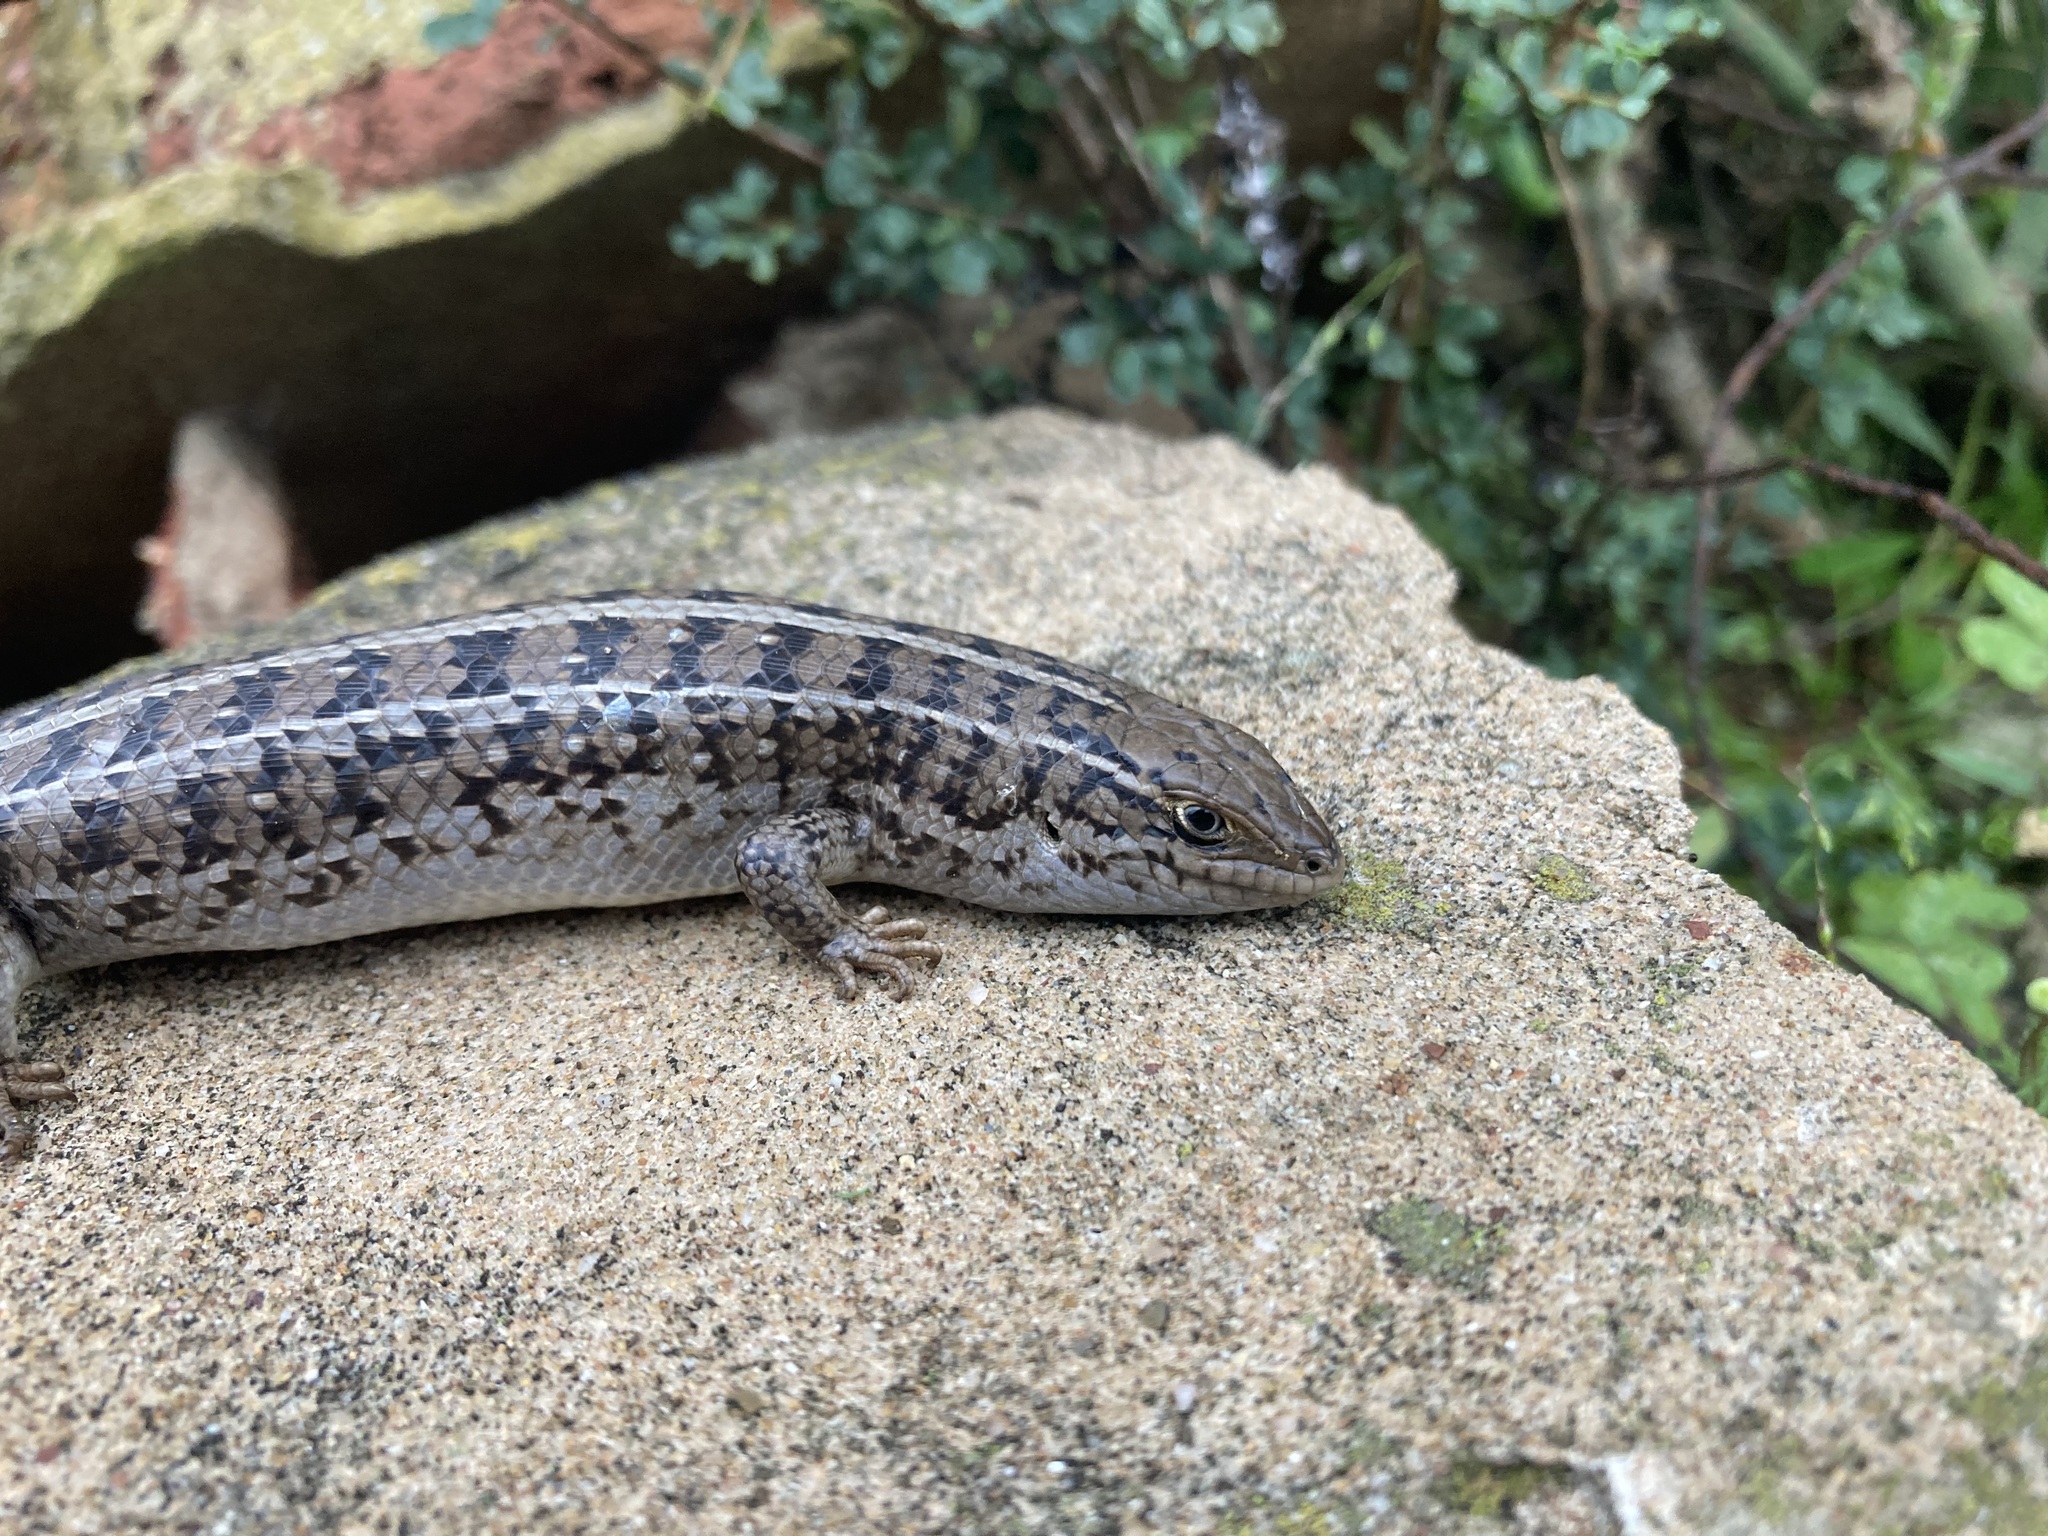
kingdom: Animalia
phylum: Chordata
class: Squamata
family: Scincidae
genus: Trachylepis
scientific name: Trachylepis capensis
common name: Cape skink
